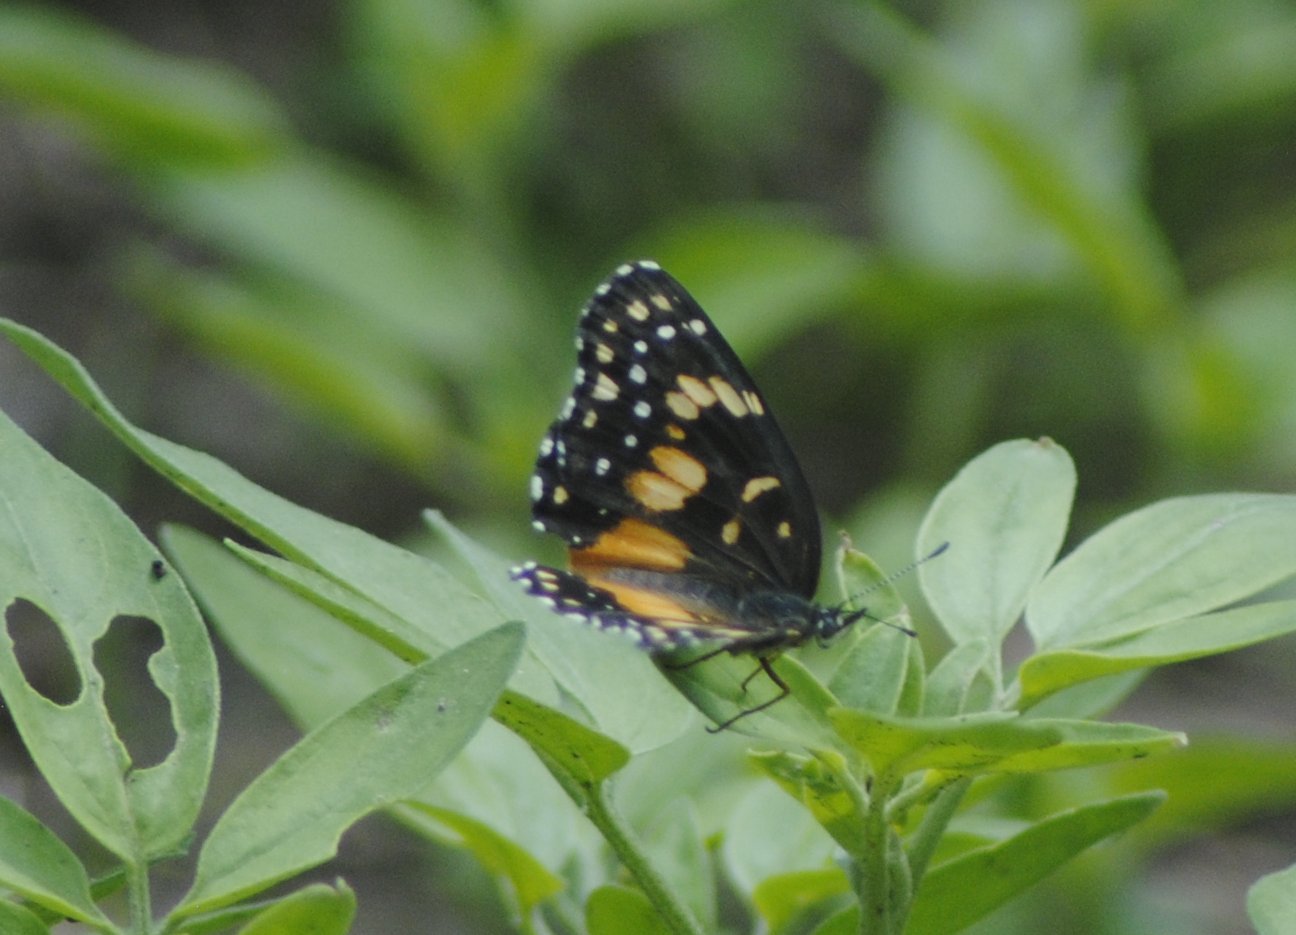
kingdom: Animalia
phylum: Arthropoda
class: Insecta
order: Lepidoptera
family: Nymphalidae
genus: Chlosyne
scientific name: Chlosyne lacinia
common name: Bordered patch
